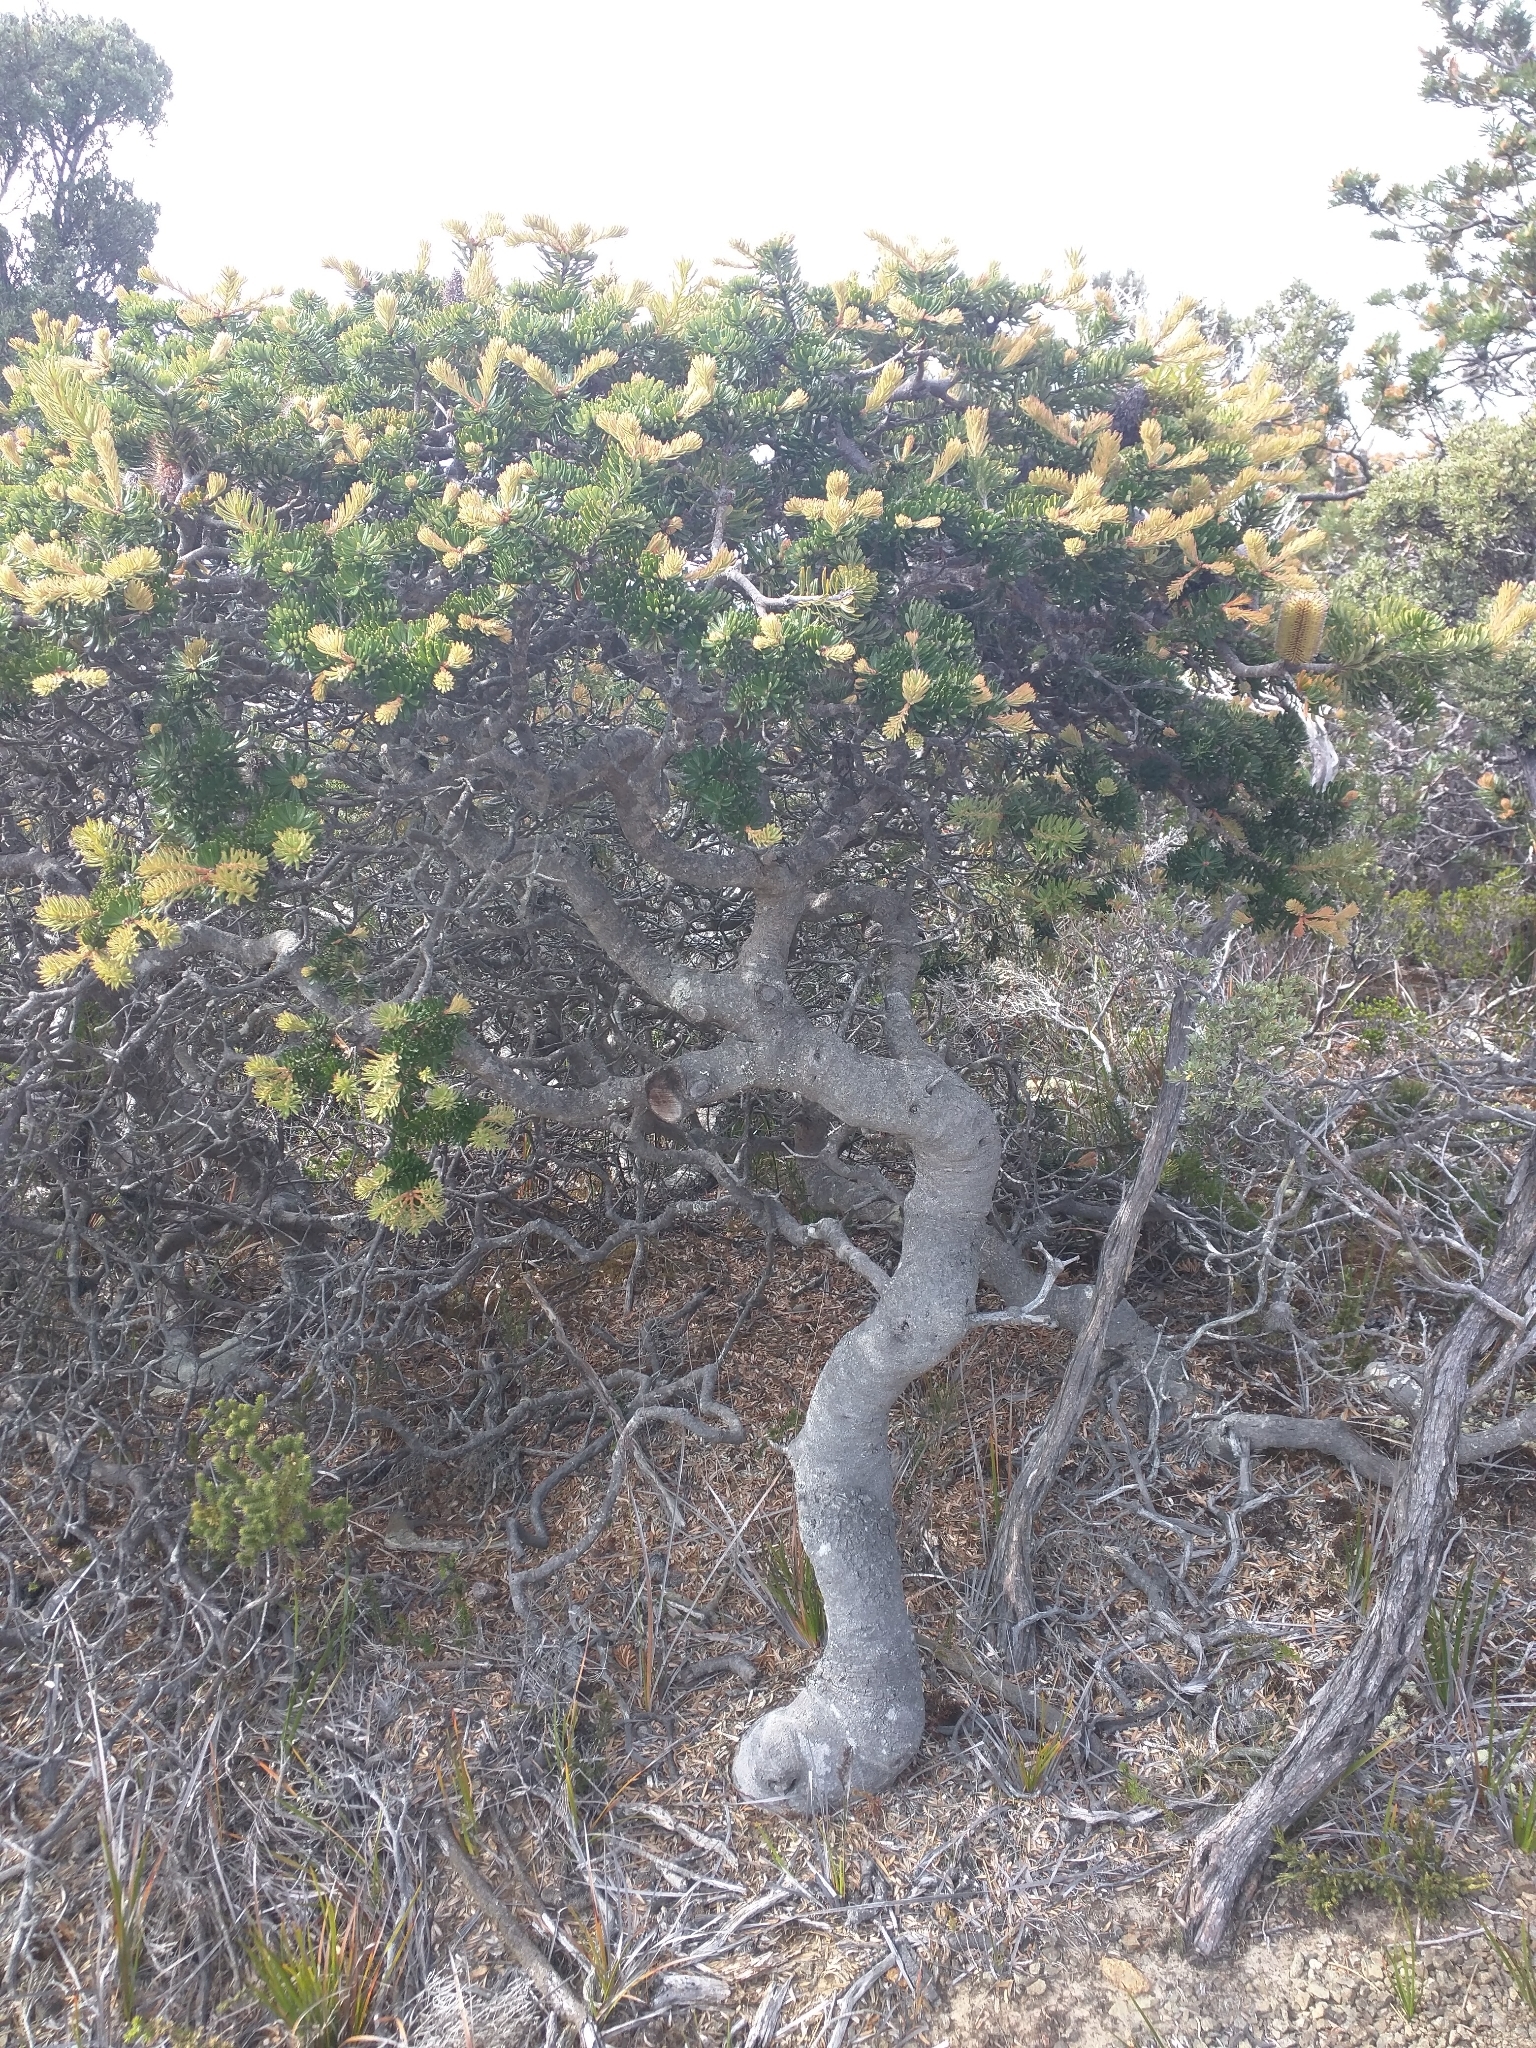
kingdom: Plantae
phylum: Tracheophyta
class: Magnoliopsida
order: Proteales
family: Proteaceae
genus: Banksia
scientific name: Banksia marginata
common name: Silver banksia
